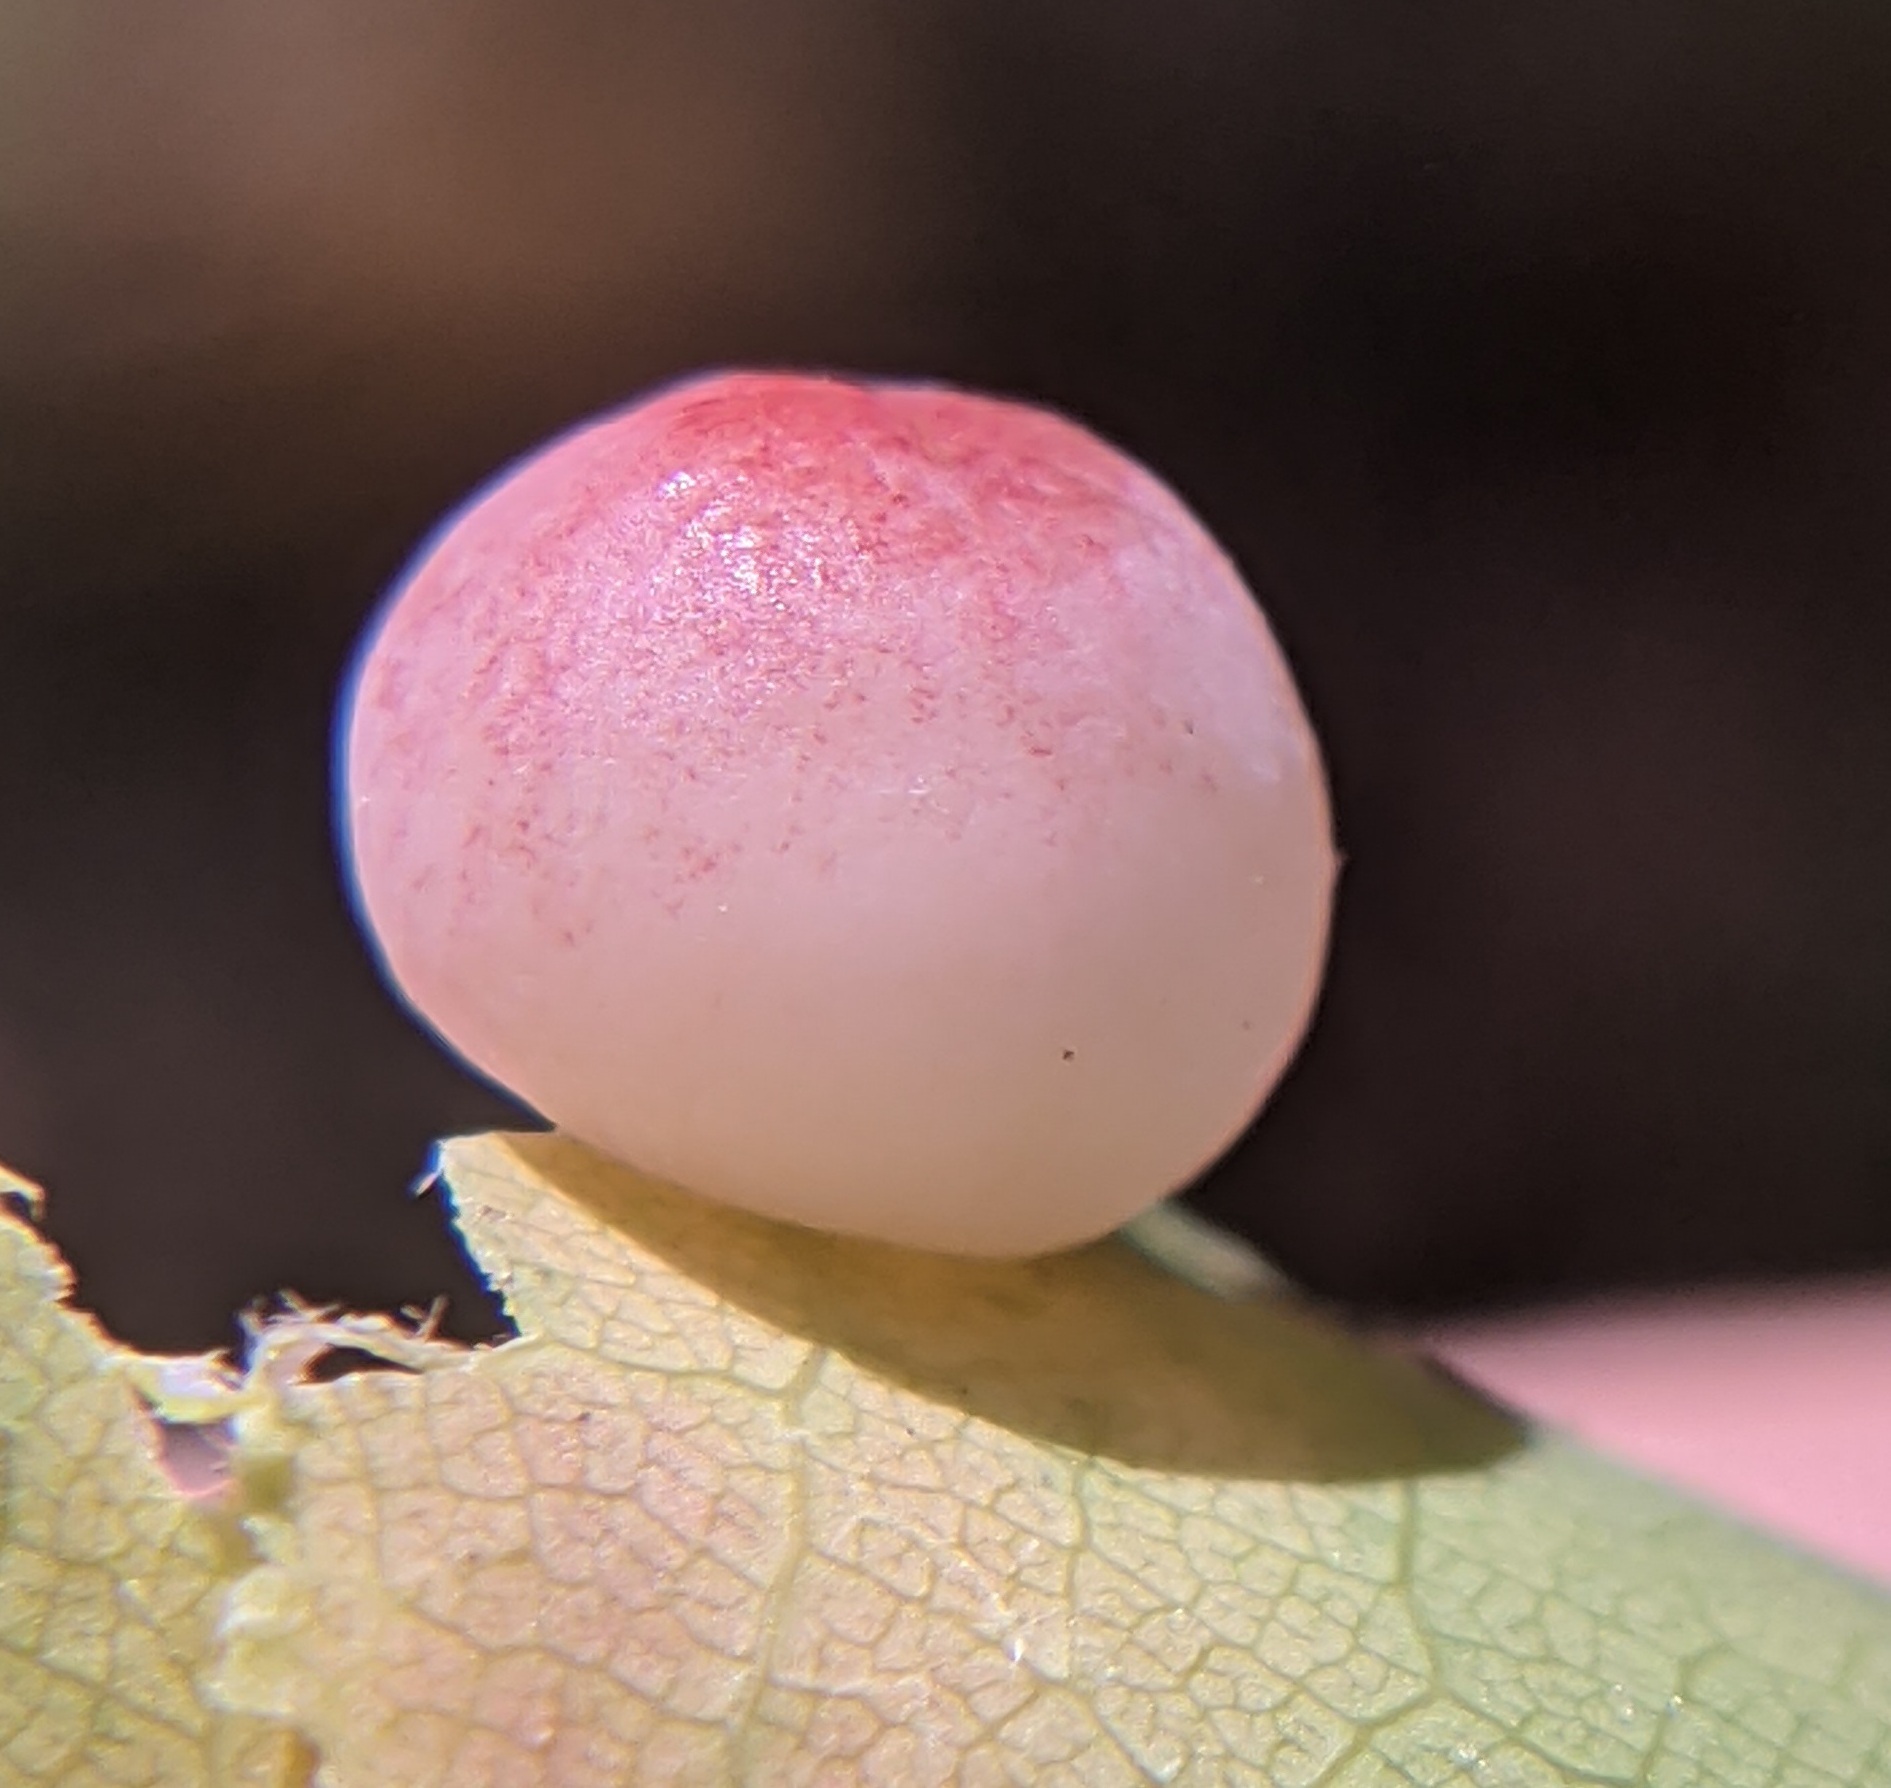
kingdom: Animalia
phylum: Arthropoda
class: Insecta
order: Hymenoptera
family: Cynipidae
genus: Zopheroteras
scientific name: Zopheroteras
